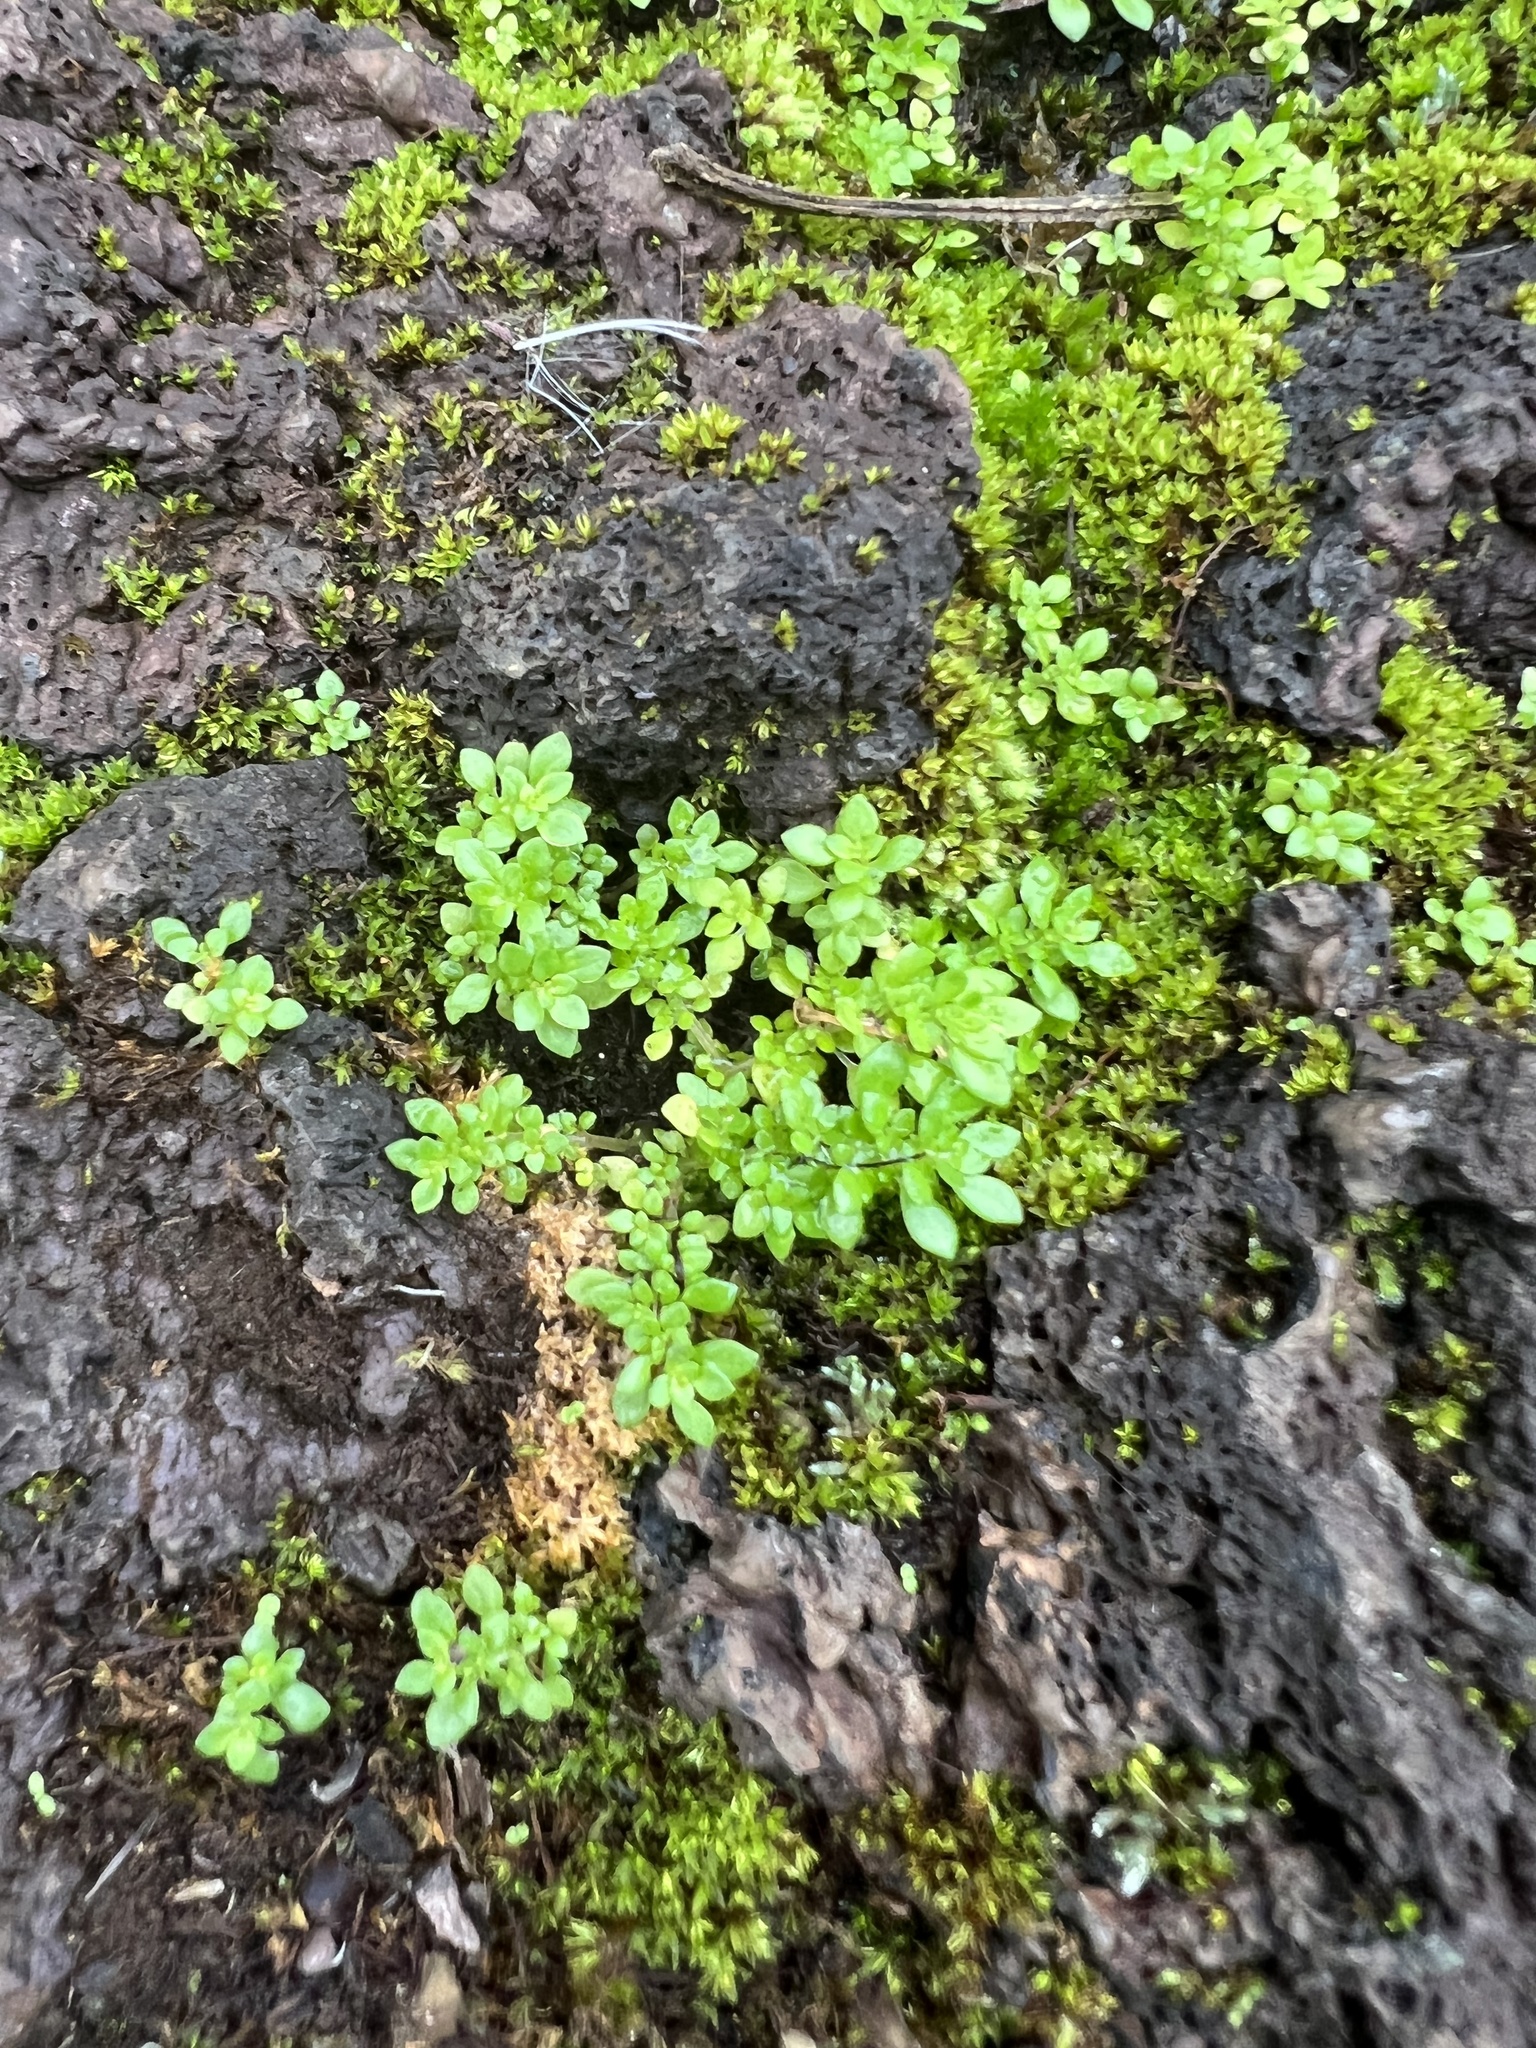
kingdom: Plantae
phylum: Tracheophyta
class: Magnoliopsida
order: Rosales
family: Urticaceae
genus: Pilea
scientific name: Pilea microphylla
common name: Artillery-plant
